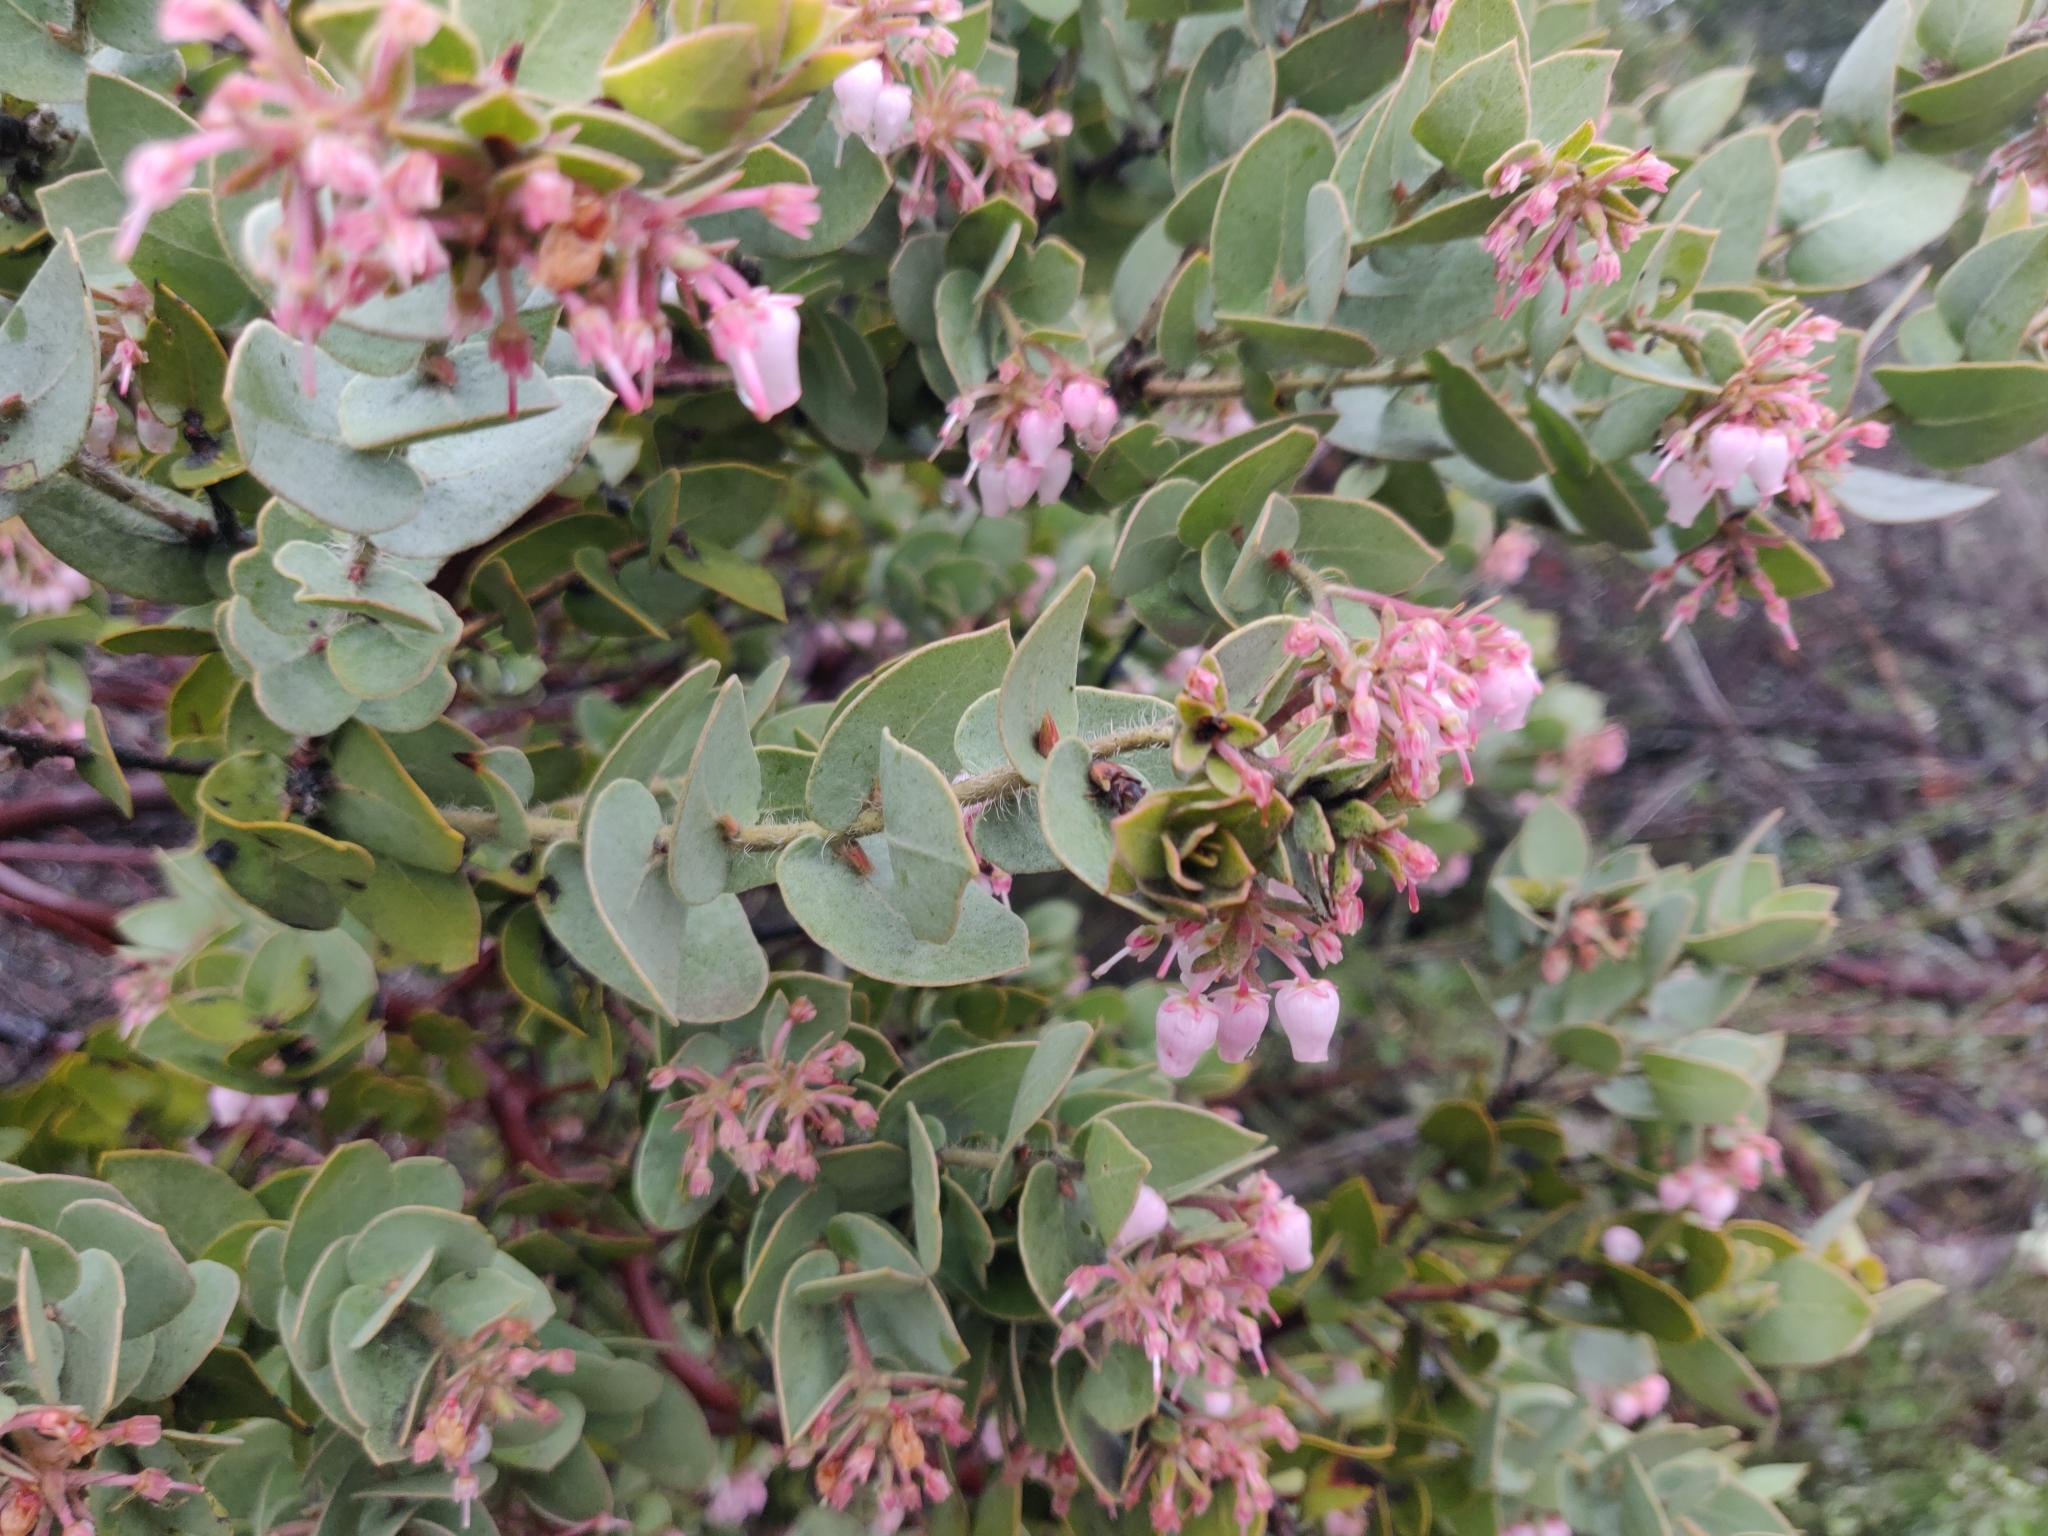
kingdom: Plantae
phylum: Tracheophyta
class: Magnoliopsida
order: Ericales
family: Ericaceae
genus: Arctostaphylos
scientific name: Arctostaphylos auriculata
